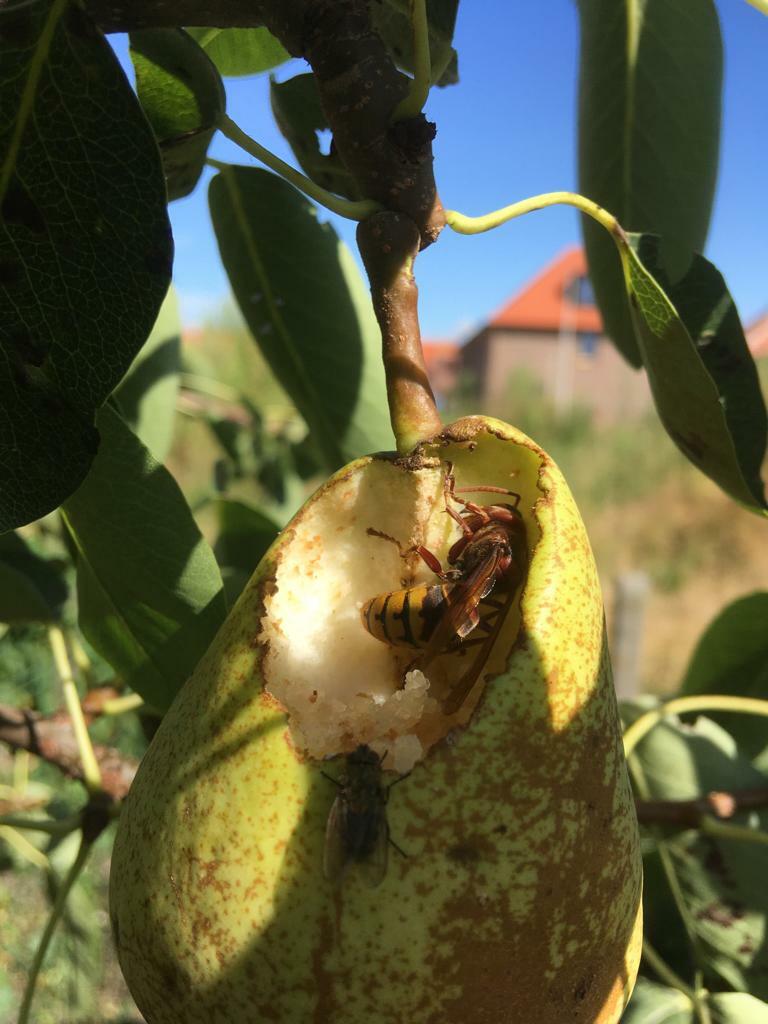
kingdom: Animalia
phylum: Arthropoda
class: Insecta
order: Hymenoptera
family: Vespidae
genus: Vespa
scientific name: Vespa crabro
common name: Hornet
